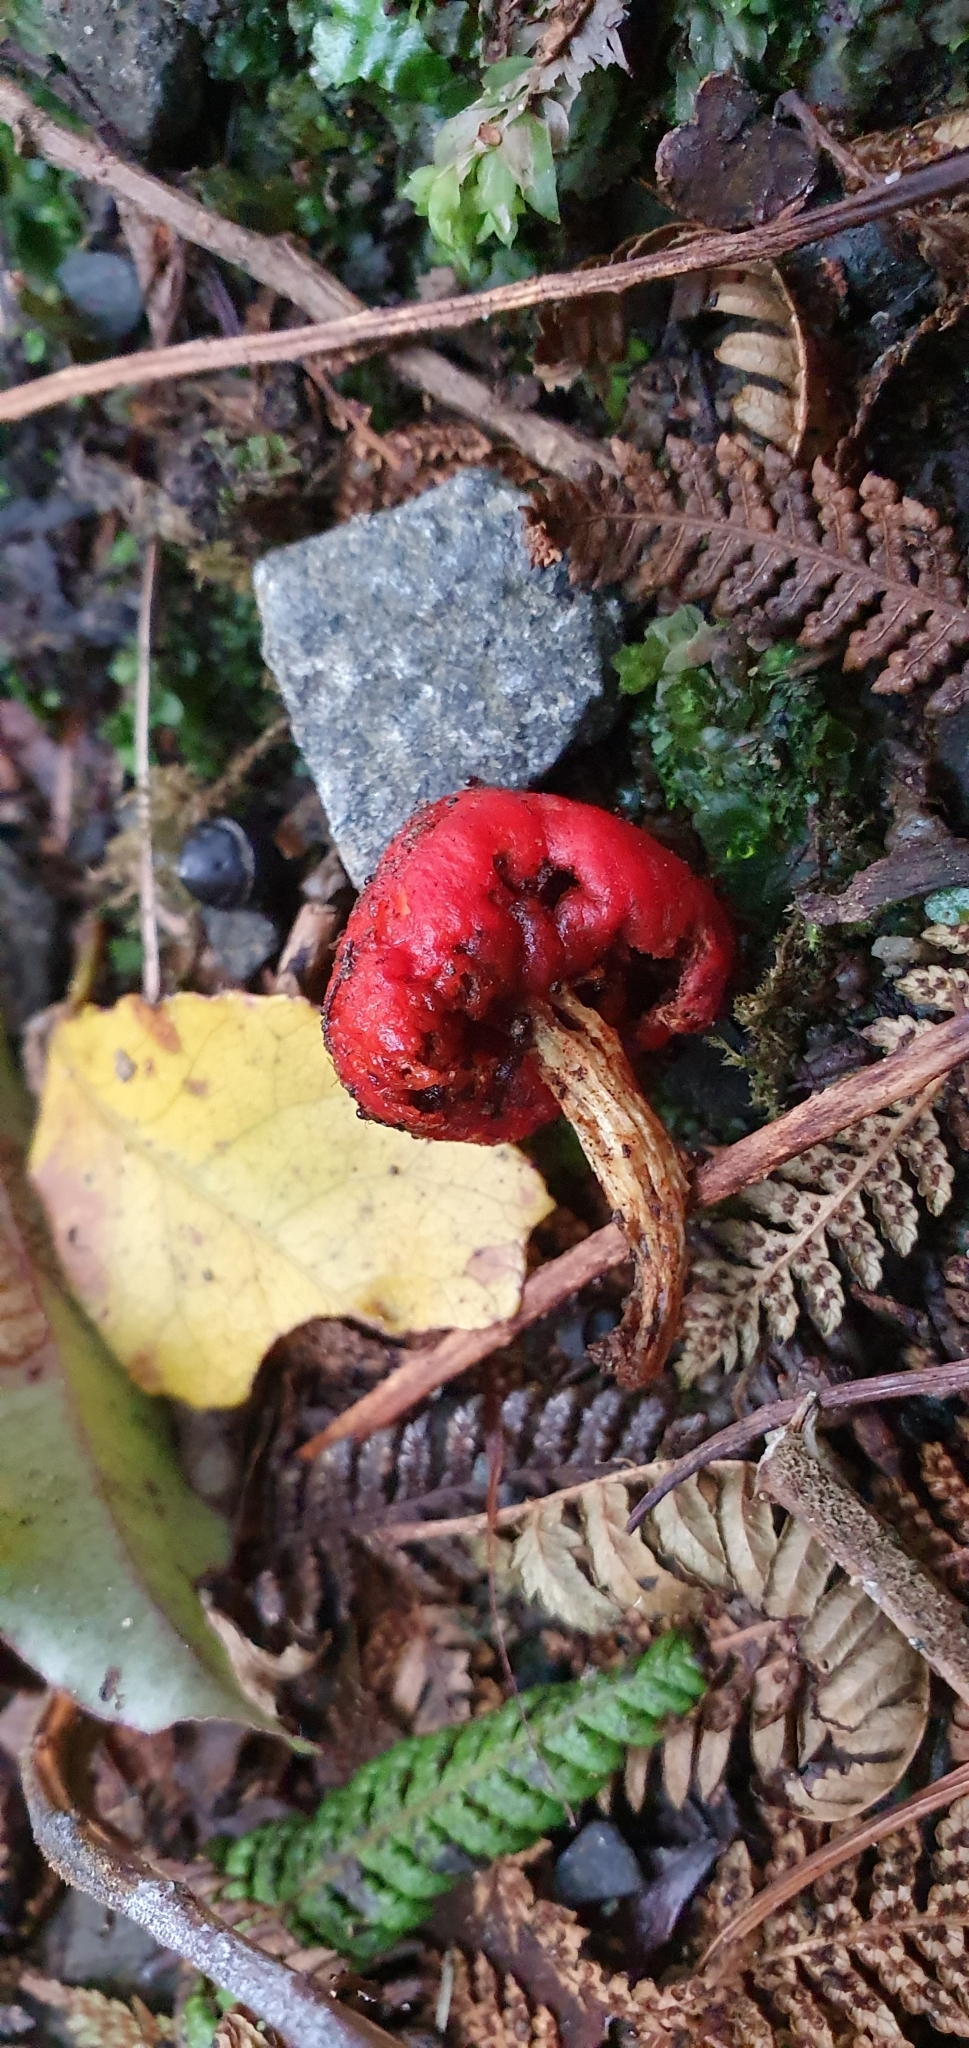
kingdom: Fungi
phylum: Basidiomycota
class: Agaricomycetes
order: Agaricales
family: Strophariaceae
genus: Leratiomyces
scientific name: Leratiomyces erythrocephalus
